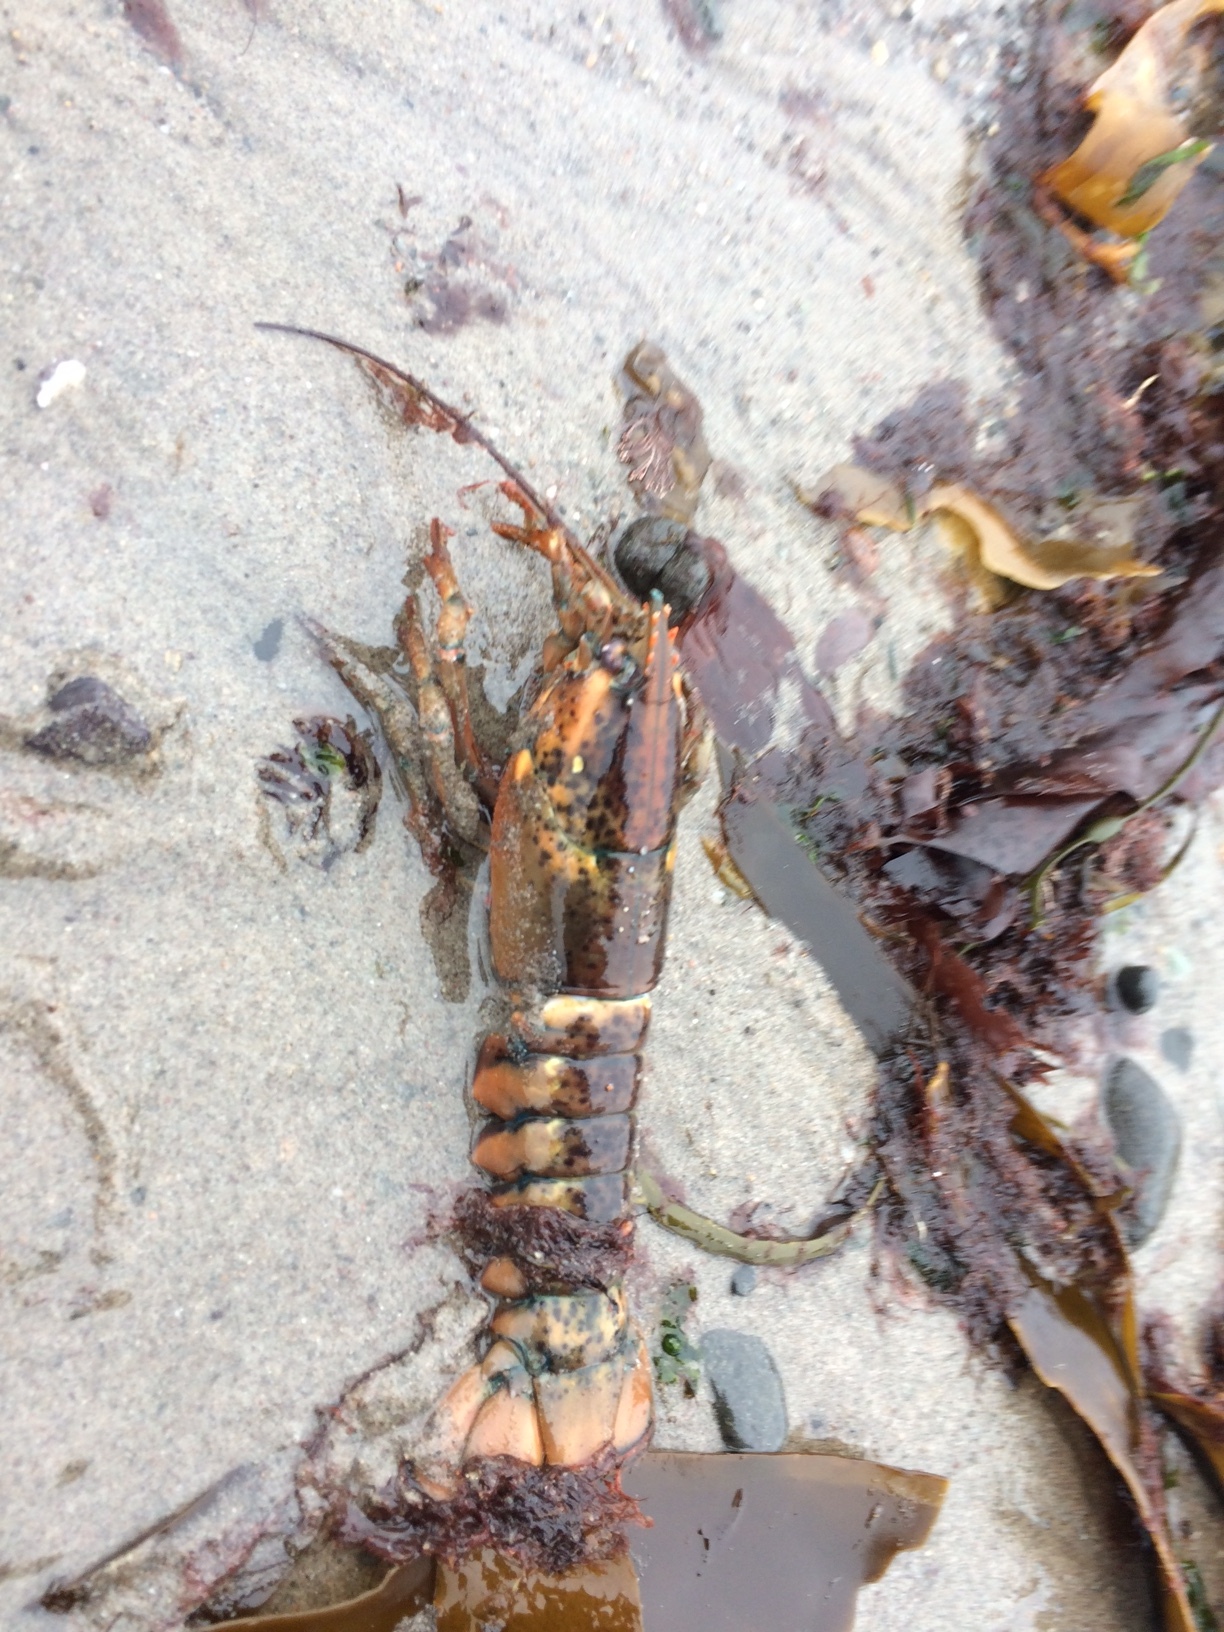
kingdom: Animalia
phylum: Arthropoda
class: Malacostraca
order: Decapoda
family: Nephropidae
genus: Homarus
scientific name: Homarus americanus
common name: American lobster
